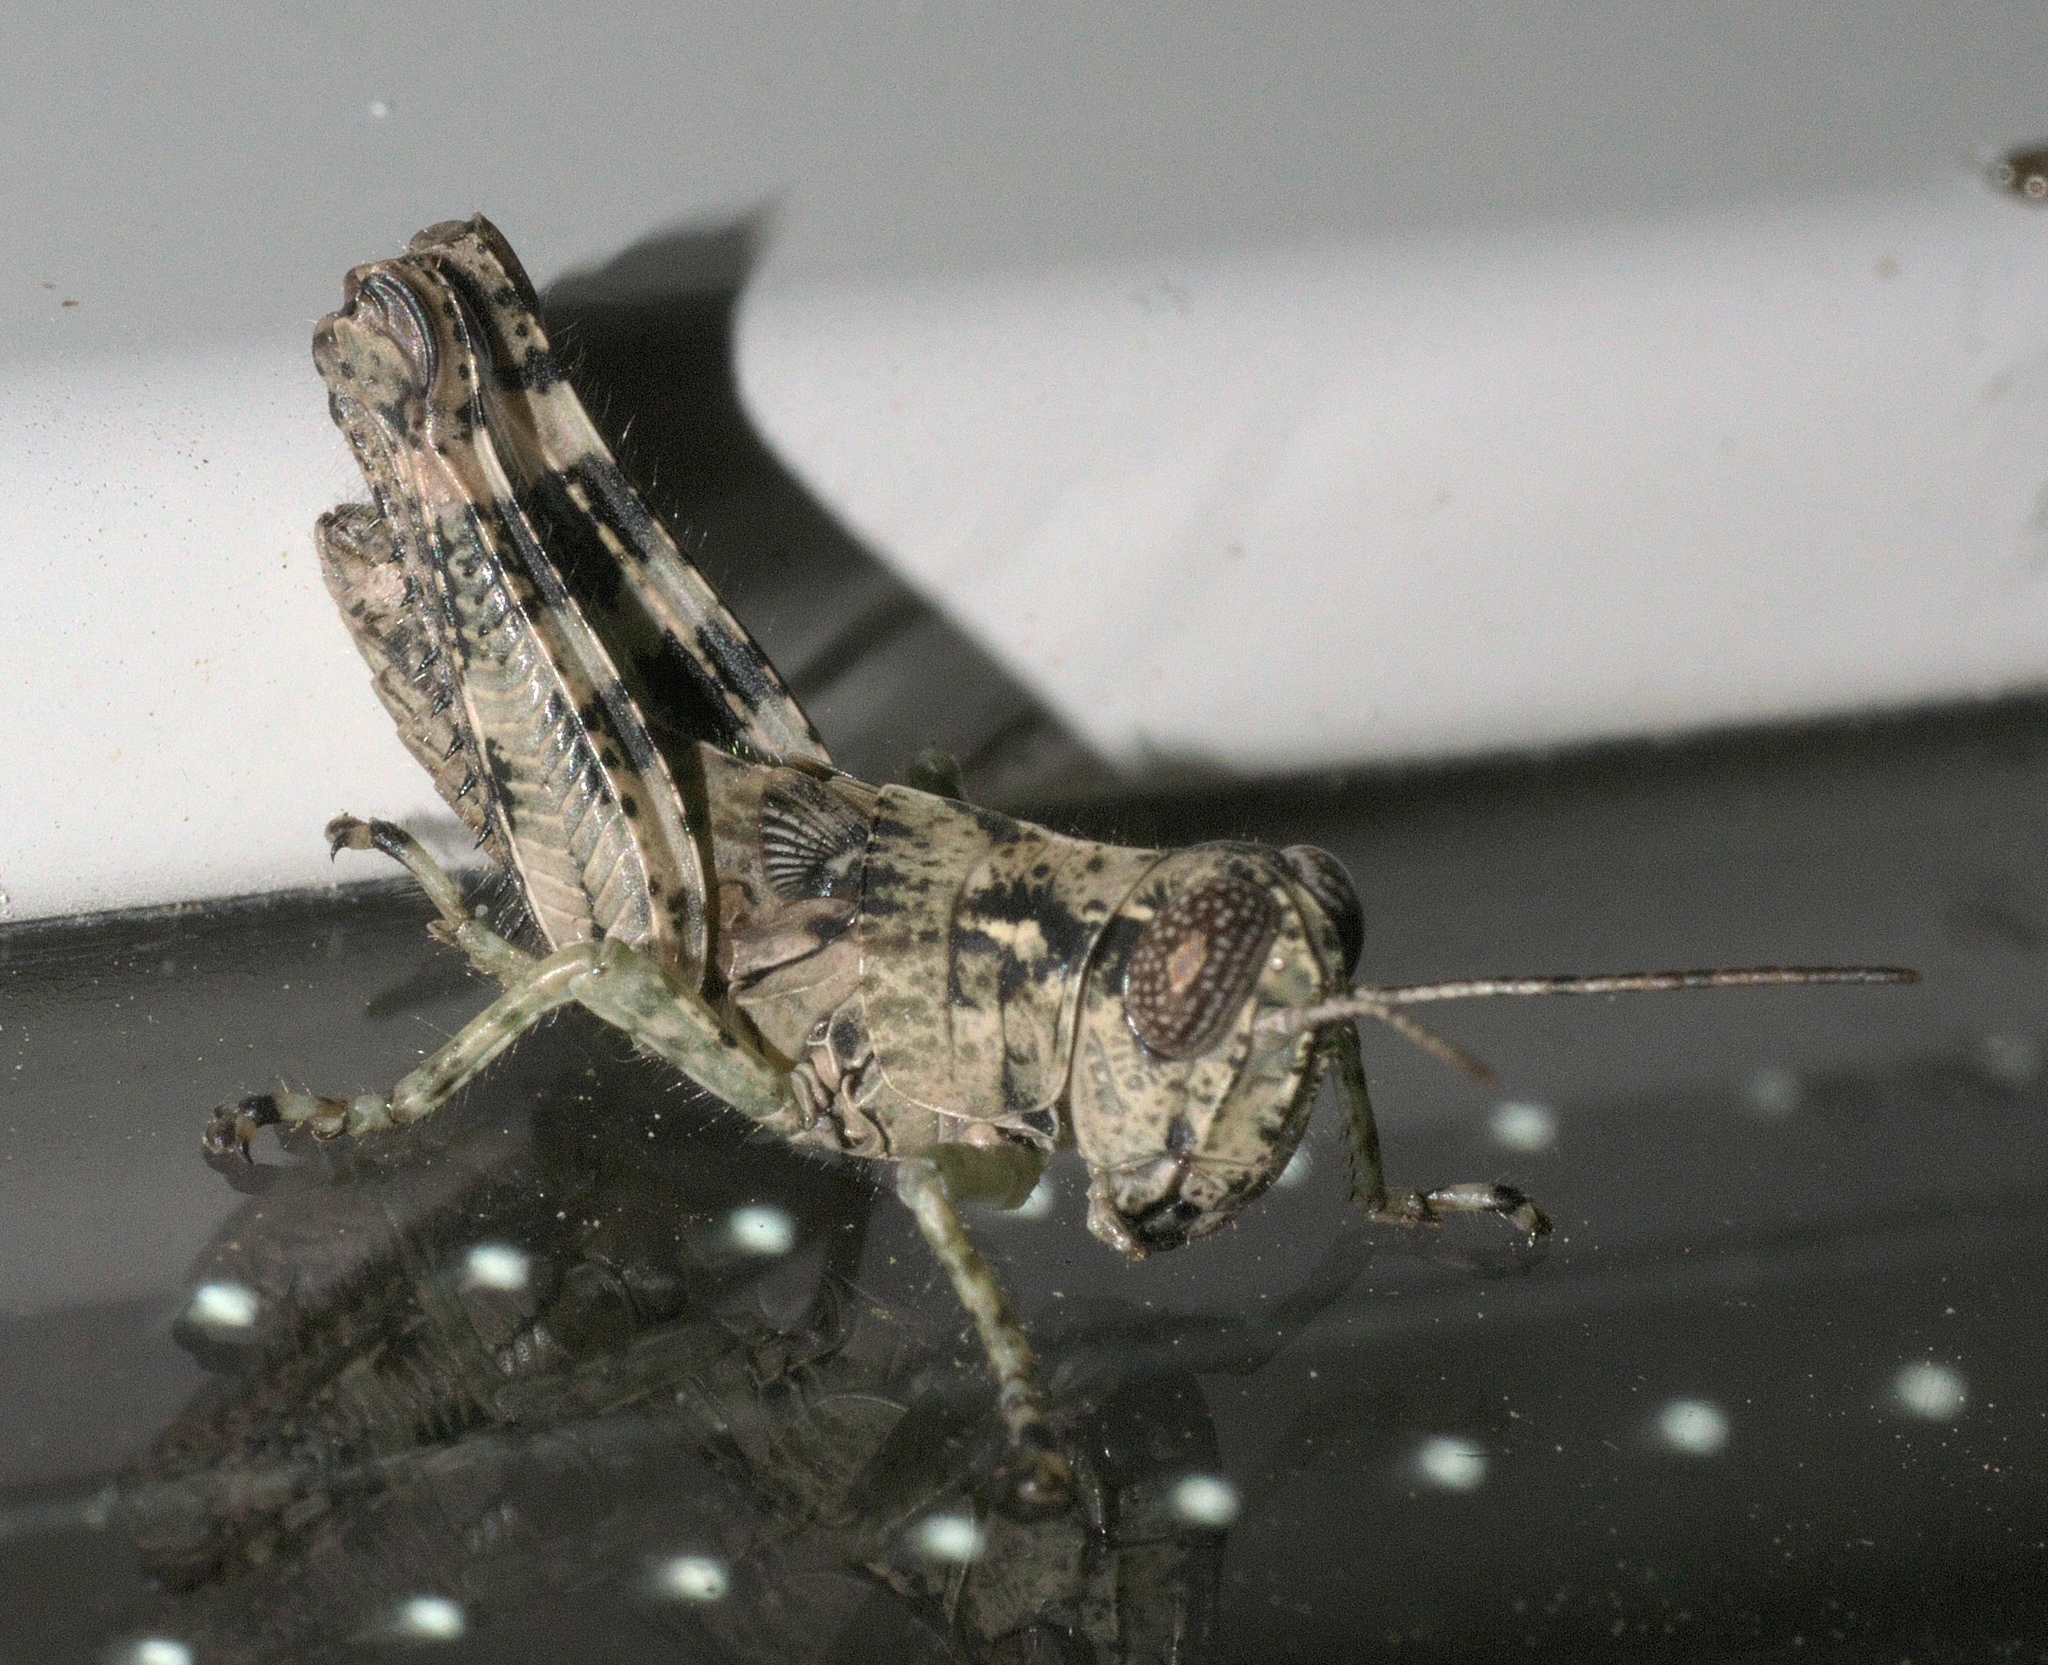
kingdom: Animalia
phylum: Arthropoda
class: Insecta
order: Orthoptera
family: Acrididae
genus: Melanoplus
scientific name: Melanoplus punctulatus
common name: Pine-tree spur-throat grasshopper
